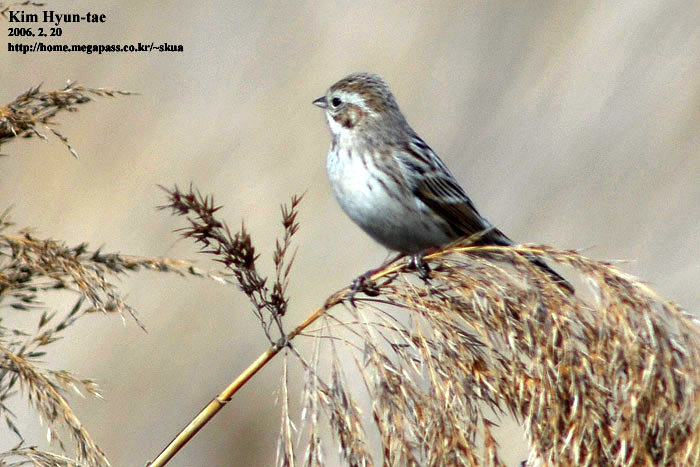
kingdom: Animalia
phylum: Chordata
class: Aves
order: Passeriformes
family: Emberizidae
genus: Emberiza
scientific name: Emberiza pallasi
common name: Pallas's reed bunting
